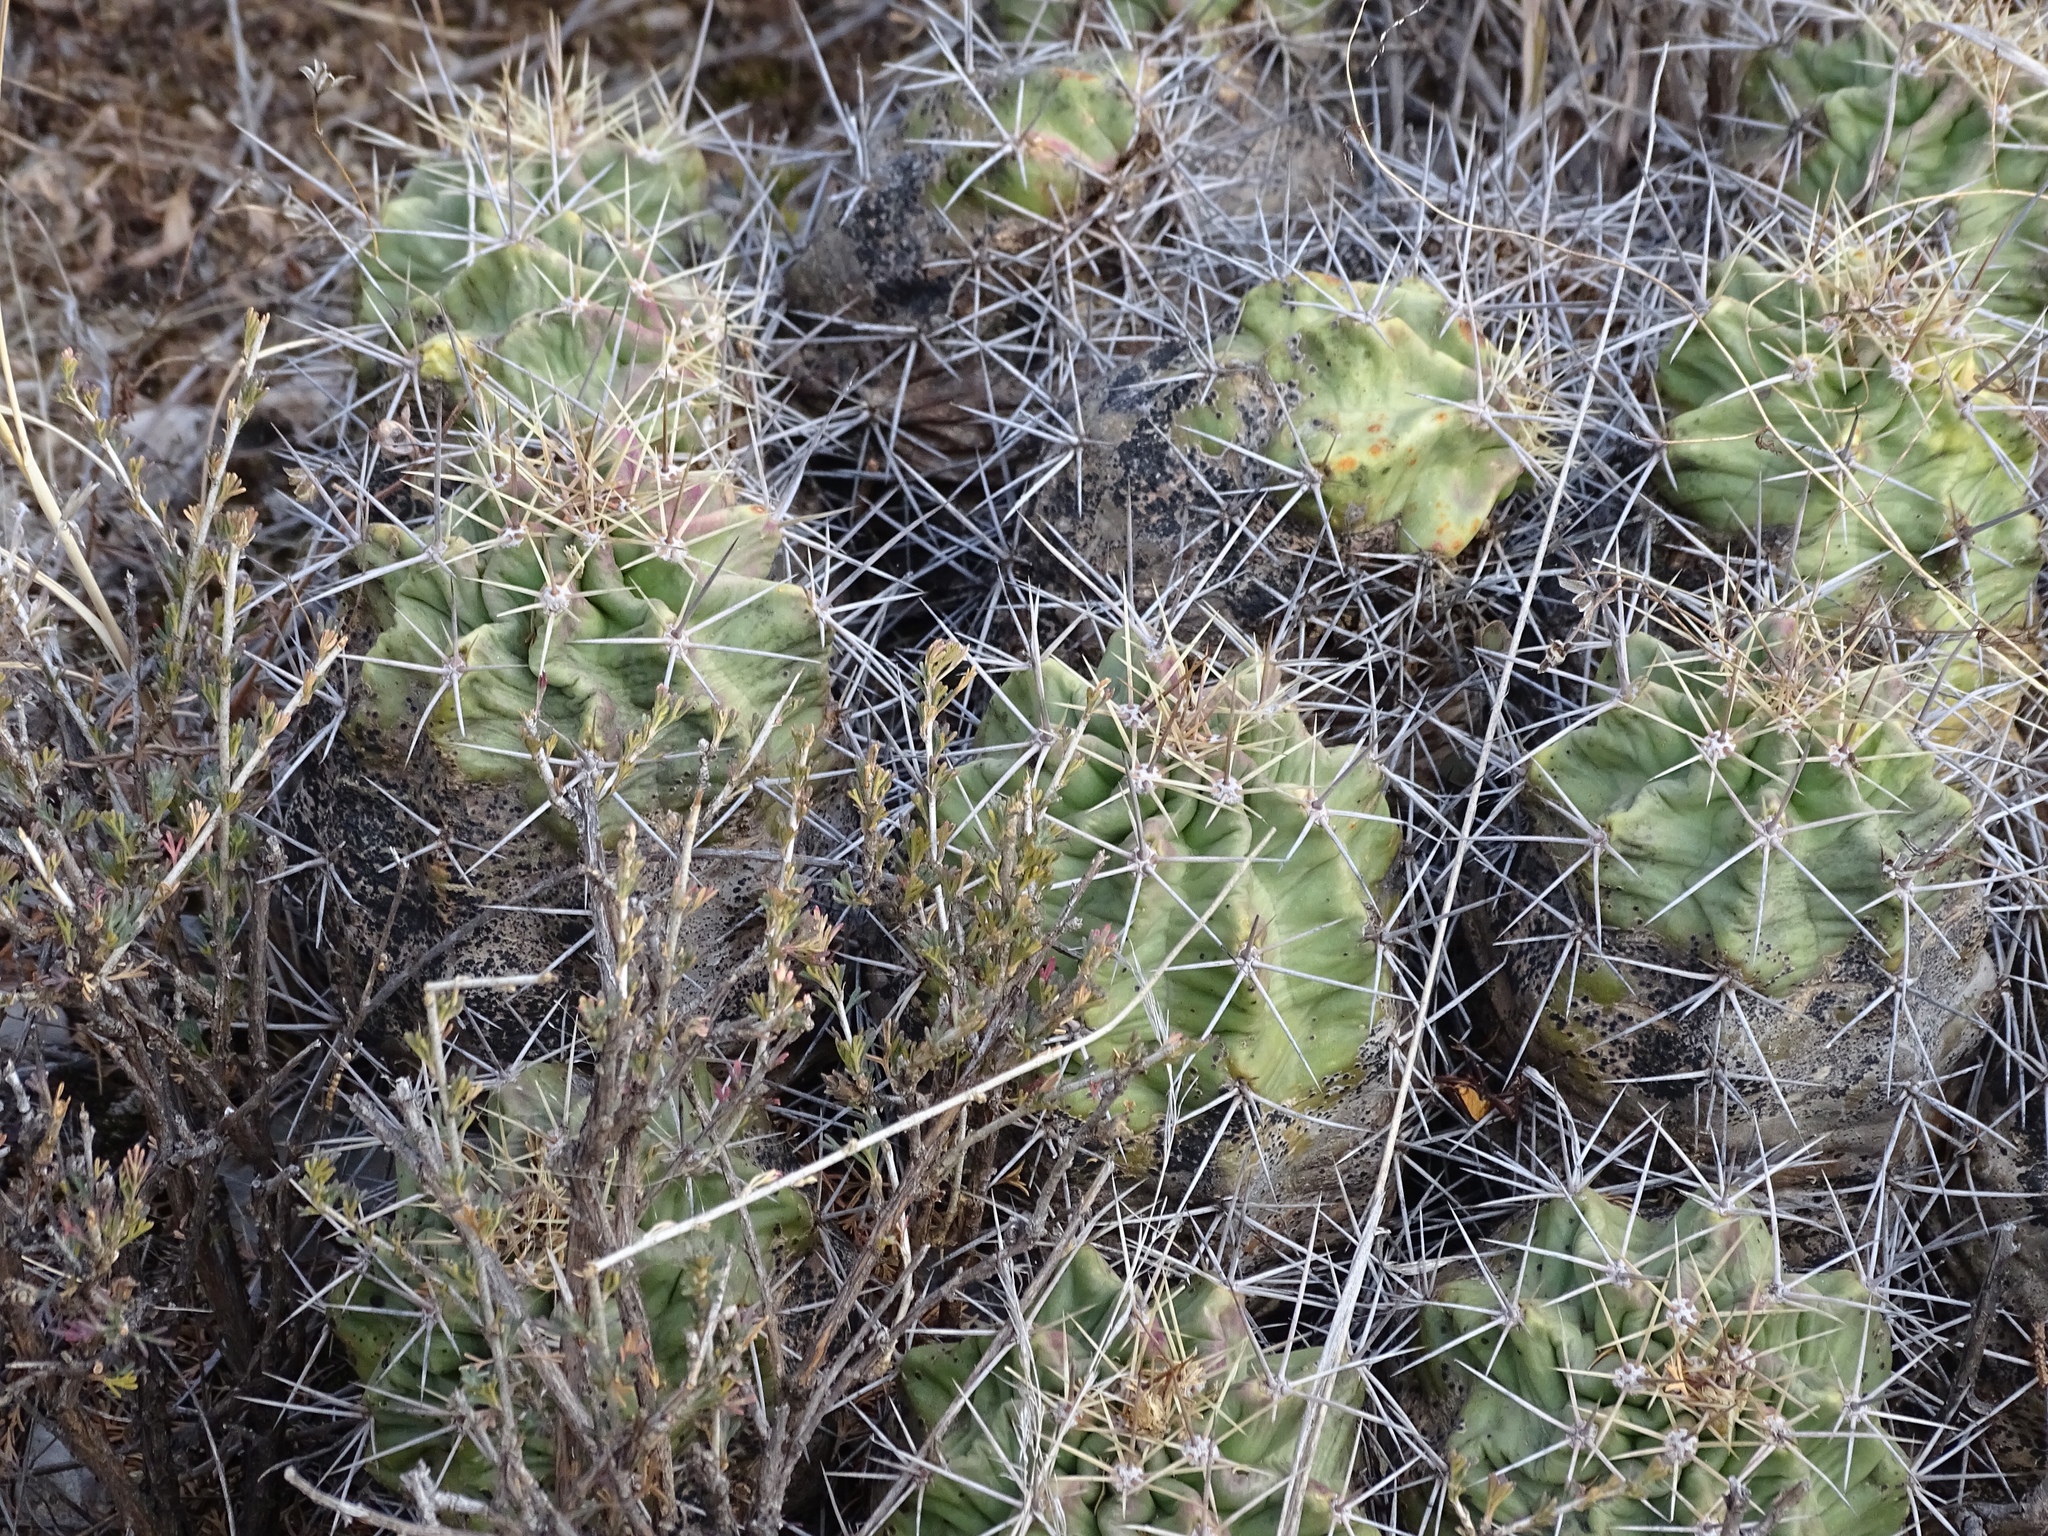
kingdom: Plantae
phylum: Tracheophyta
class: Magnoliopsida
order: Caryophyllales
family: Cactaceae
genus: Echinocereus
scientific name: Echinocereus coccineus
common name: Scarlet hedgehog cactus
